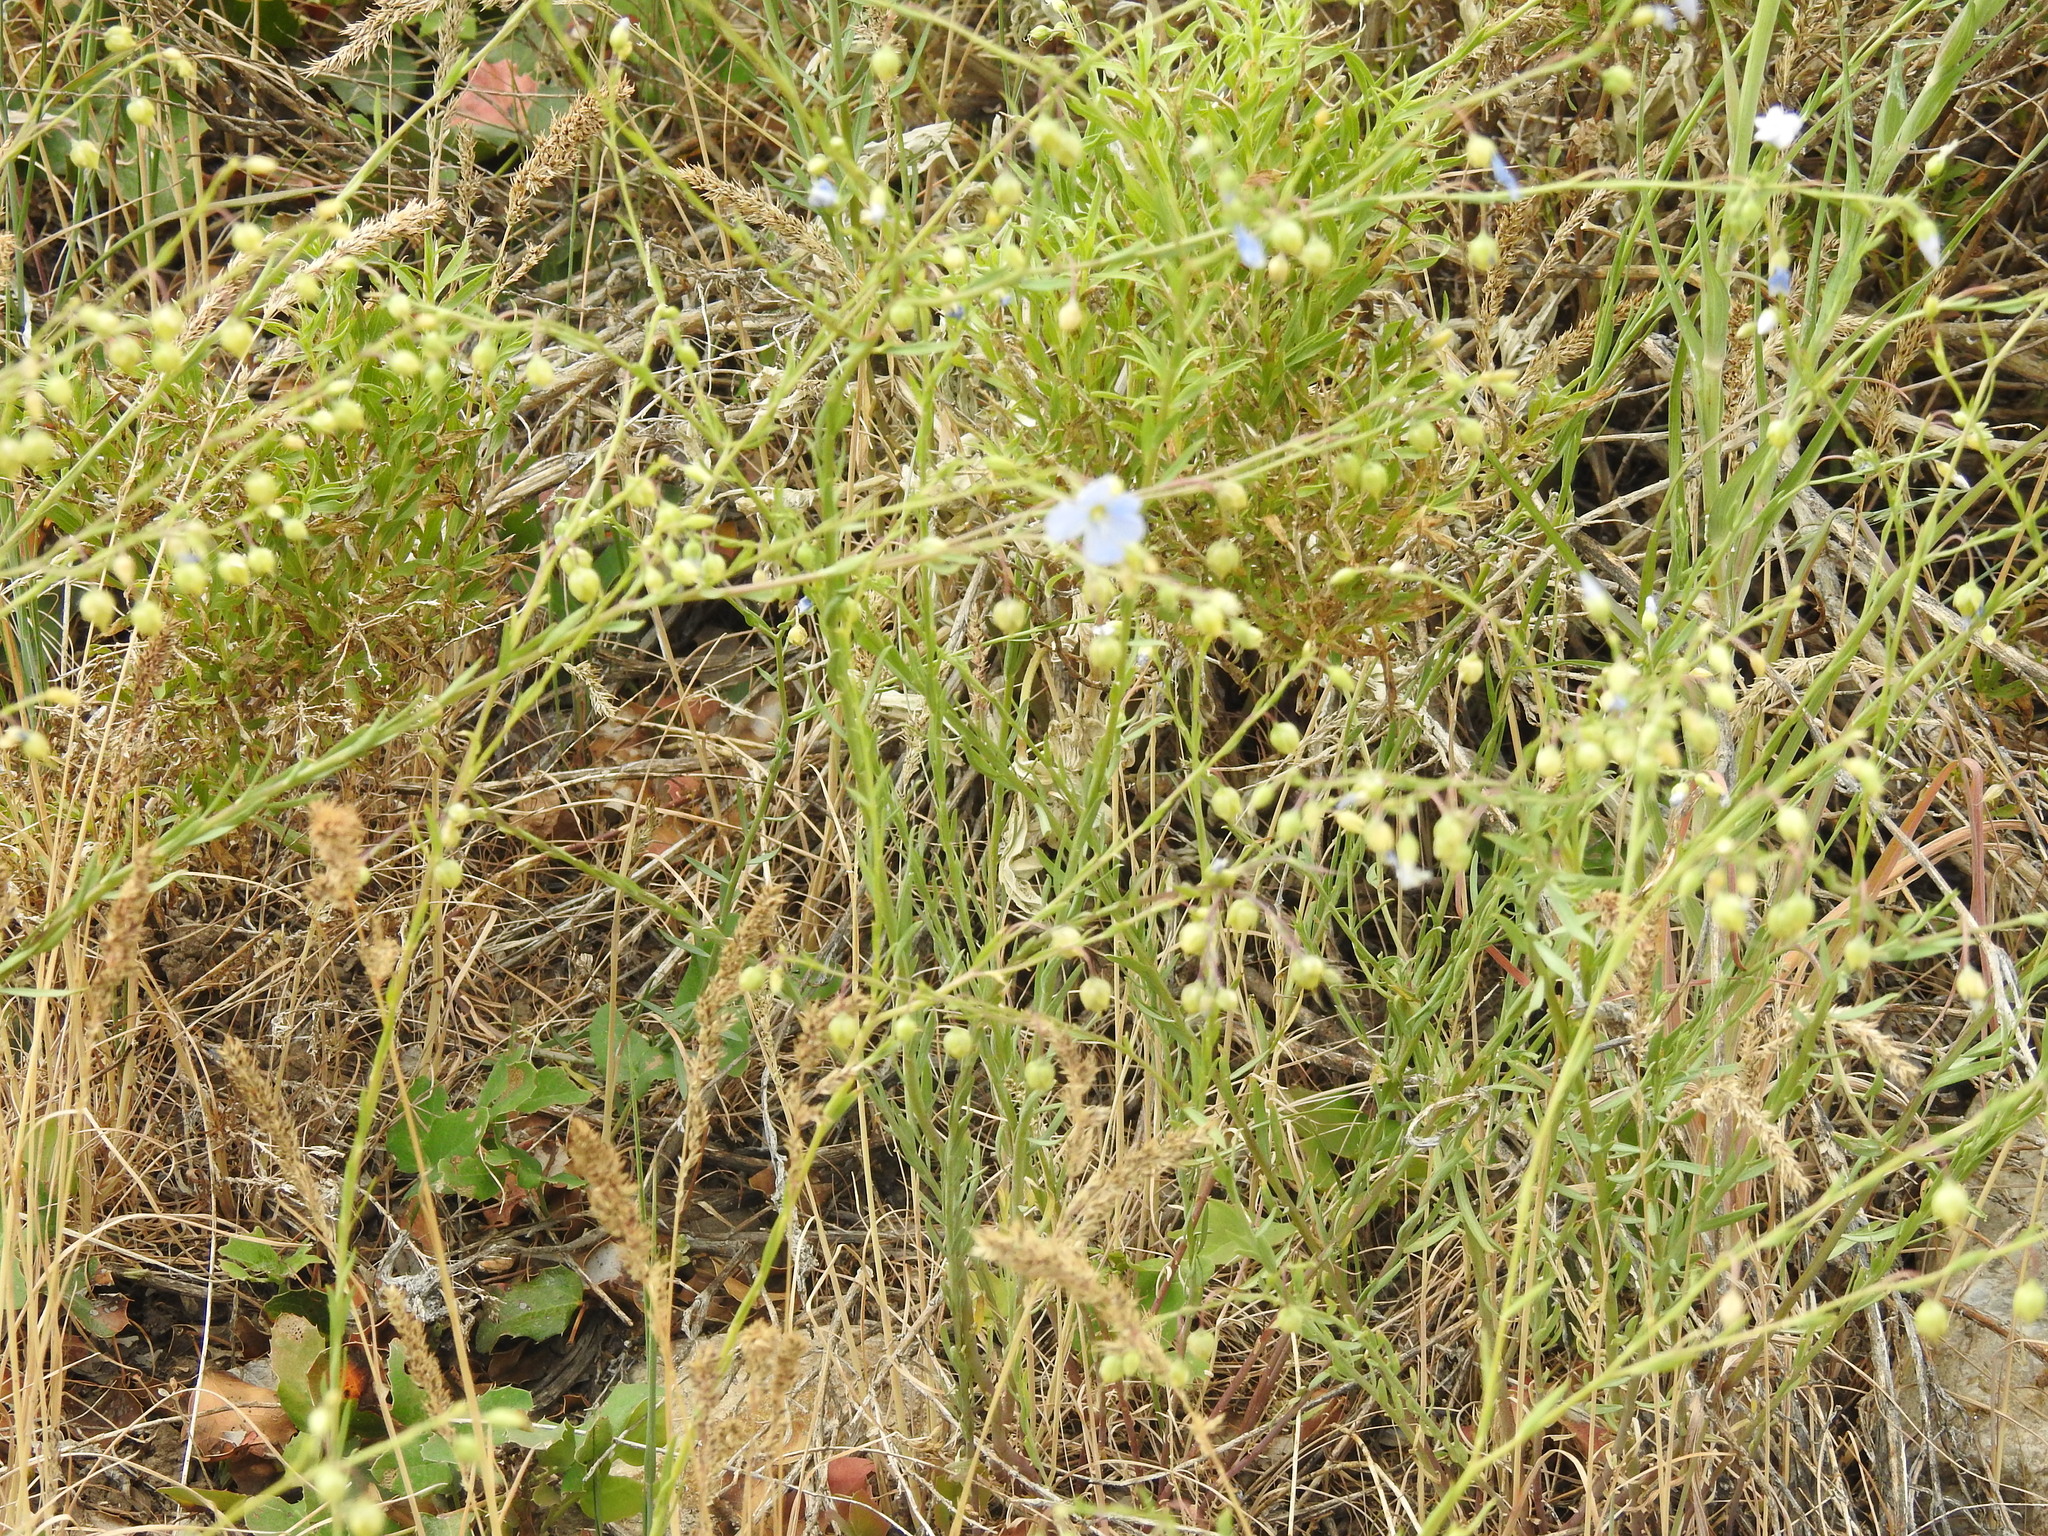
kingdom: Plantae
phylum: Tracheophyta
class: Magnoliopsida
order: Malpighiales
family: Linaceae
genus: Linum
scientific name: Linum lewisii
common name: Prairie flax
